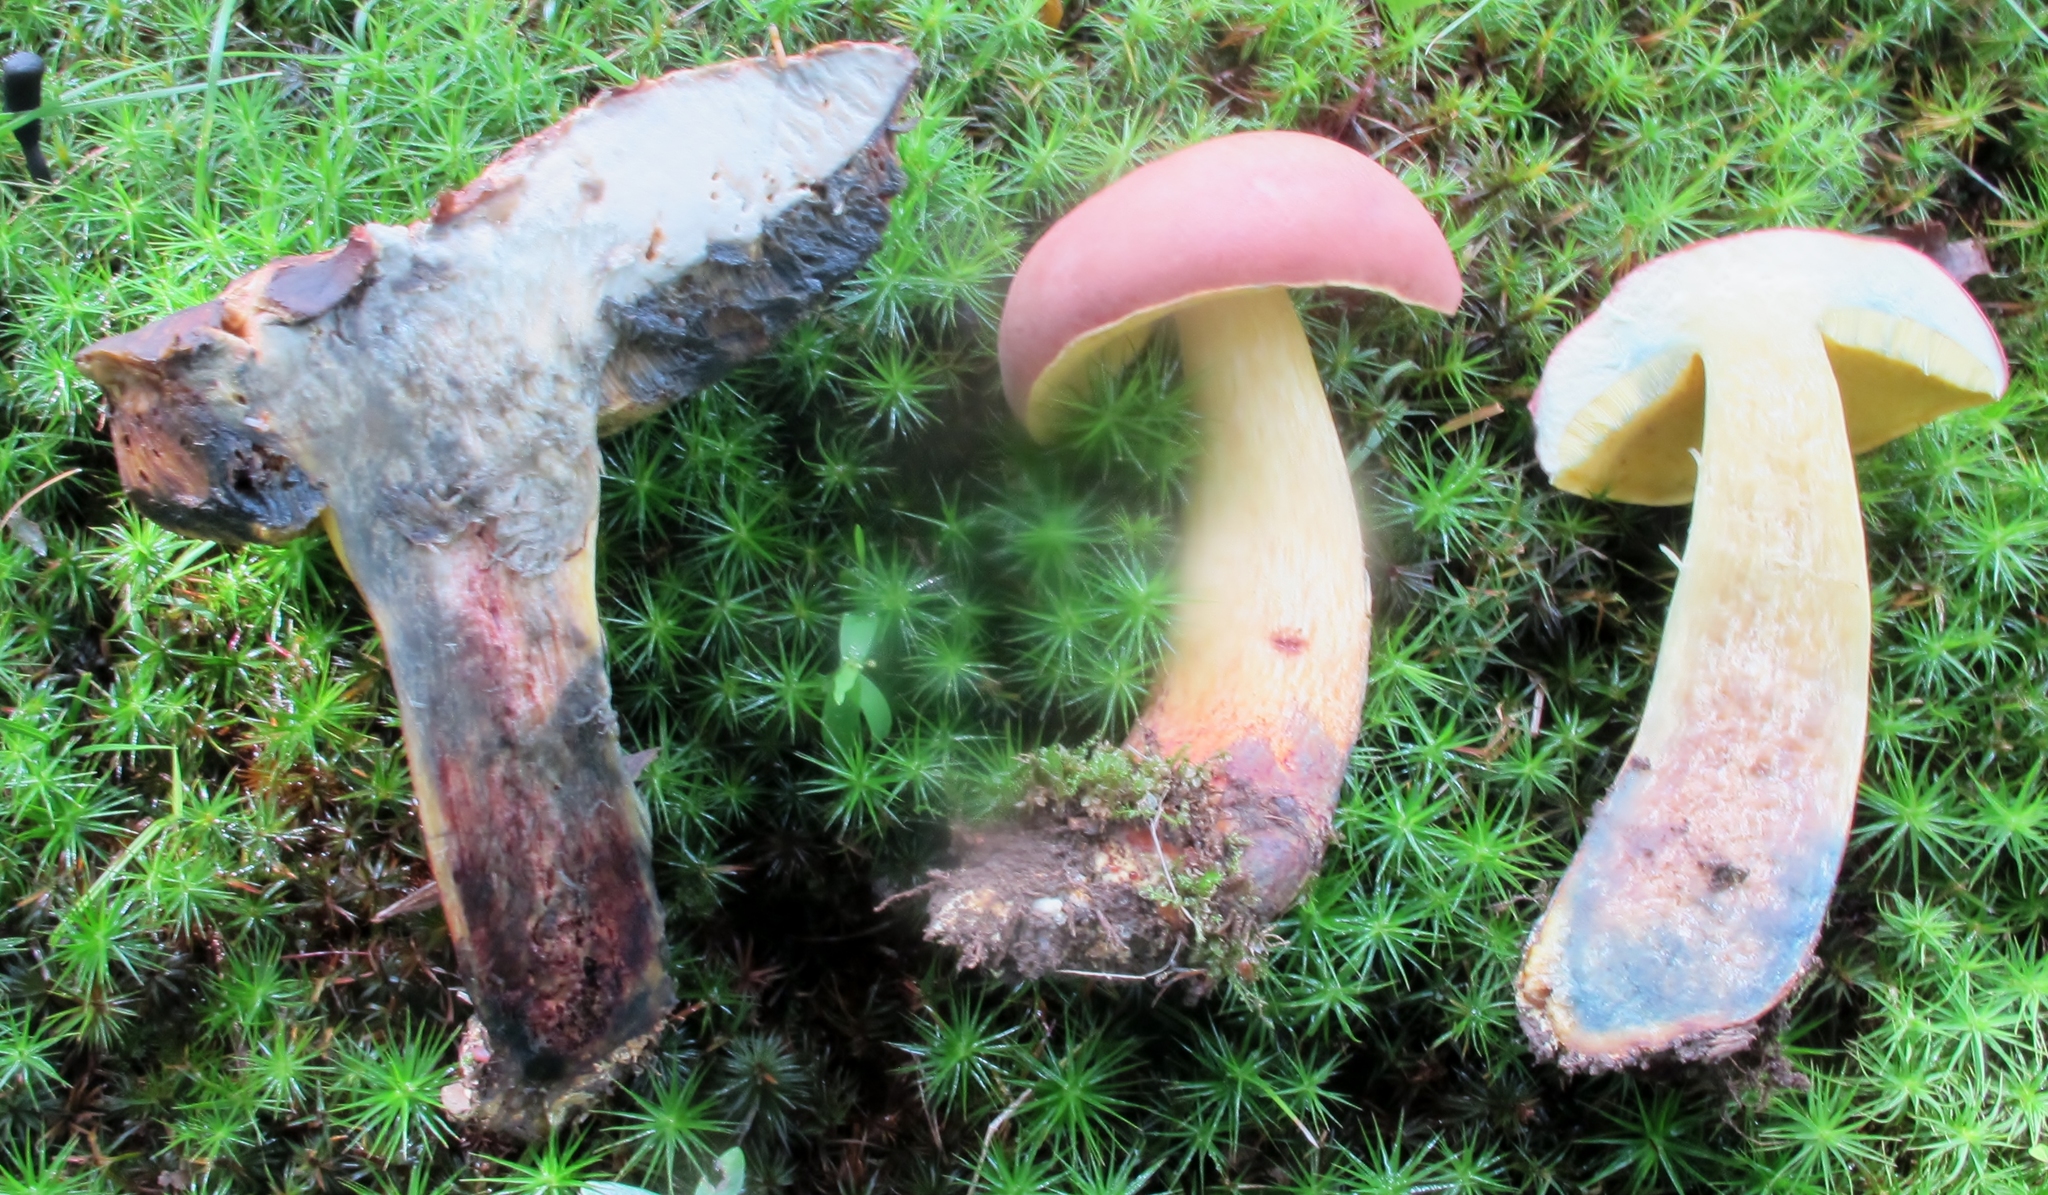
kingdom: Fungi
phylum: Basidiomycota
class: Agaricomycetes
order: Boletales
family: Boletaceae
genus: Boletus
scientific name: Boletus miniatopallescens
